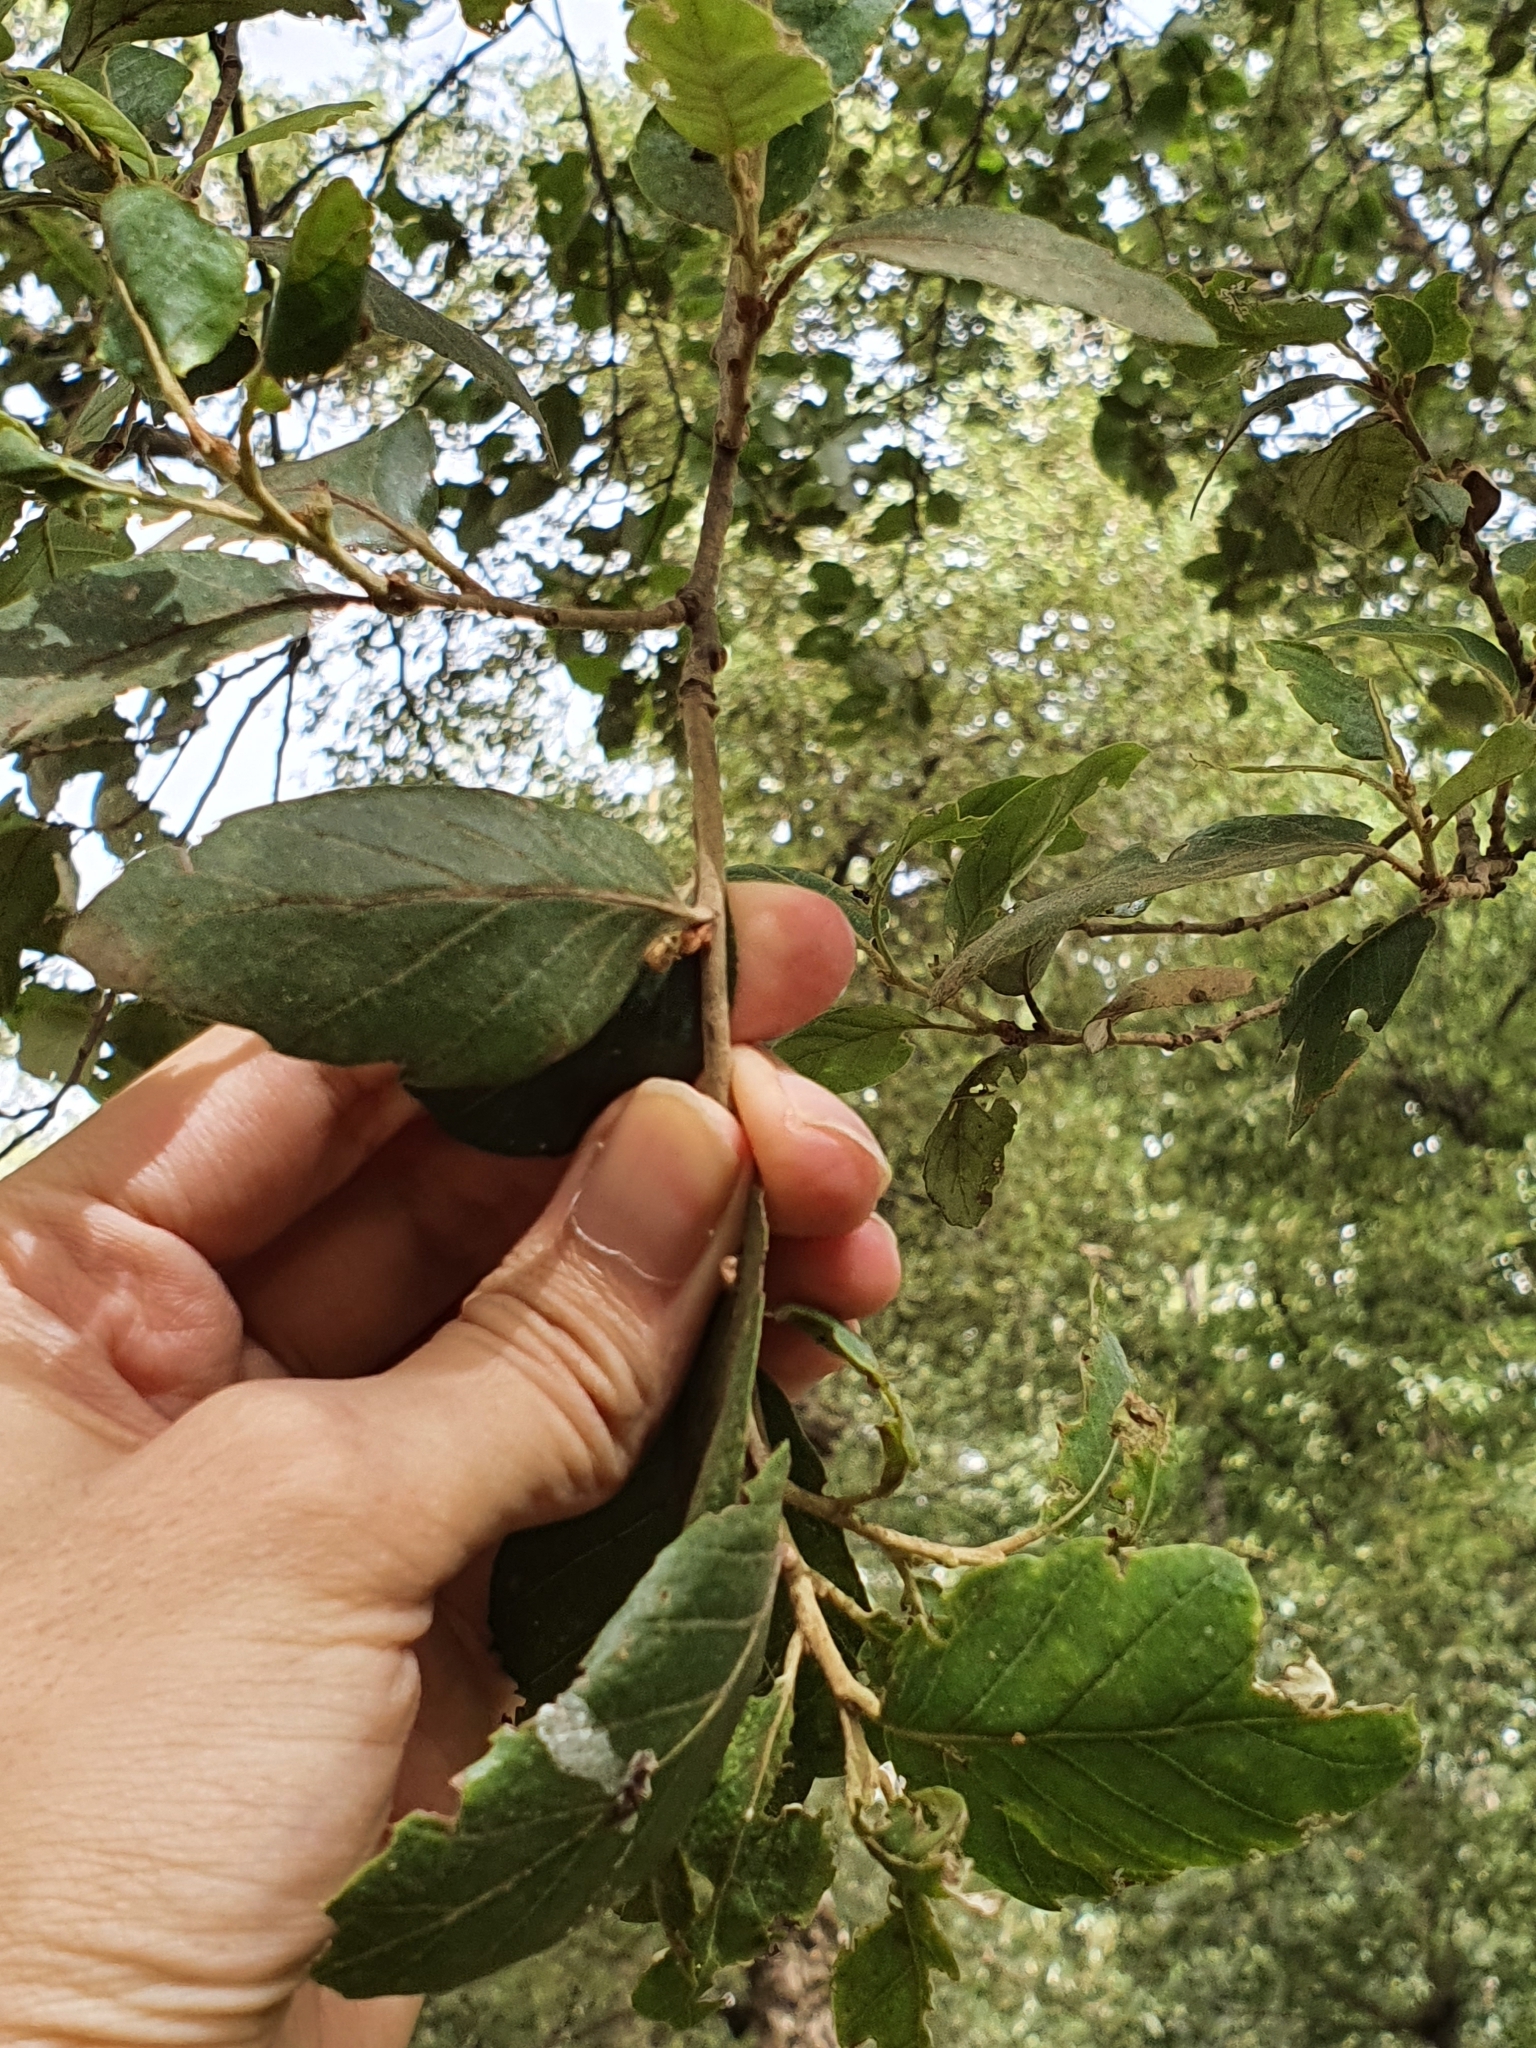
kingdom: Plantae
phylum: Tracheophyta
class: Magnoliopsida
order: Fagales
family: Fagaceae
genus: Quercus
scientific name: Quercus suber
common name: Cork oak
